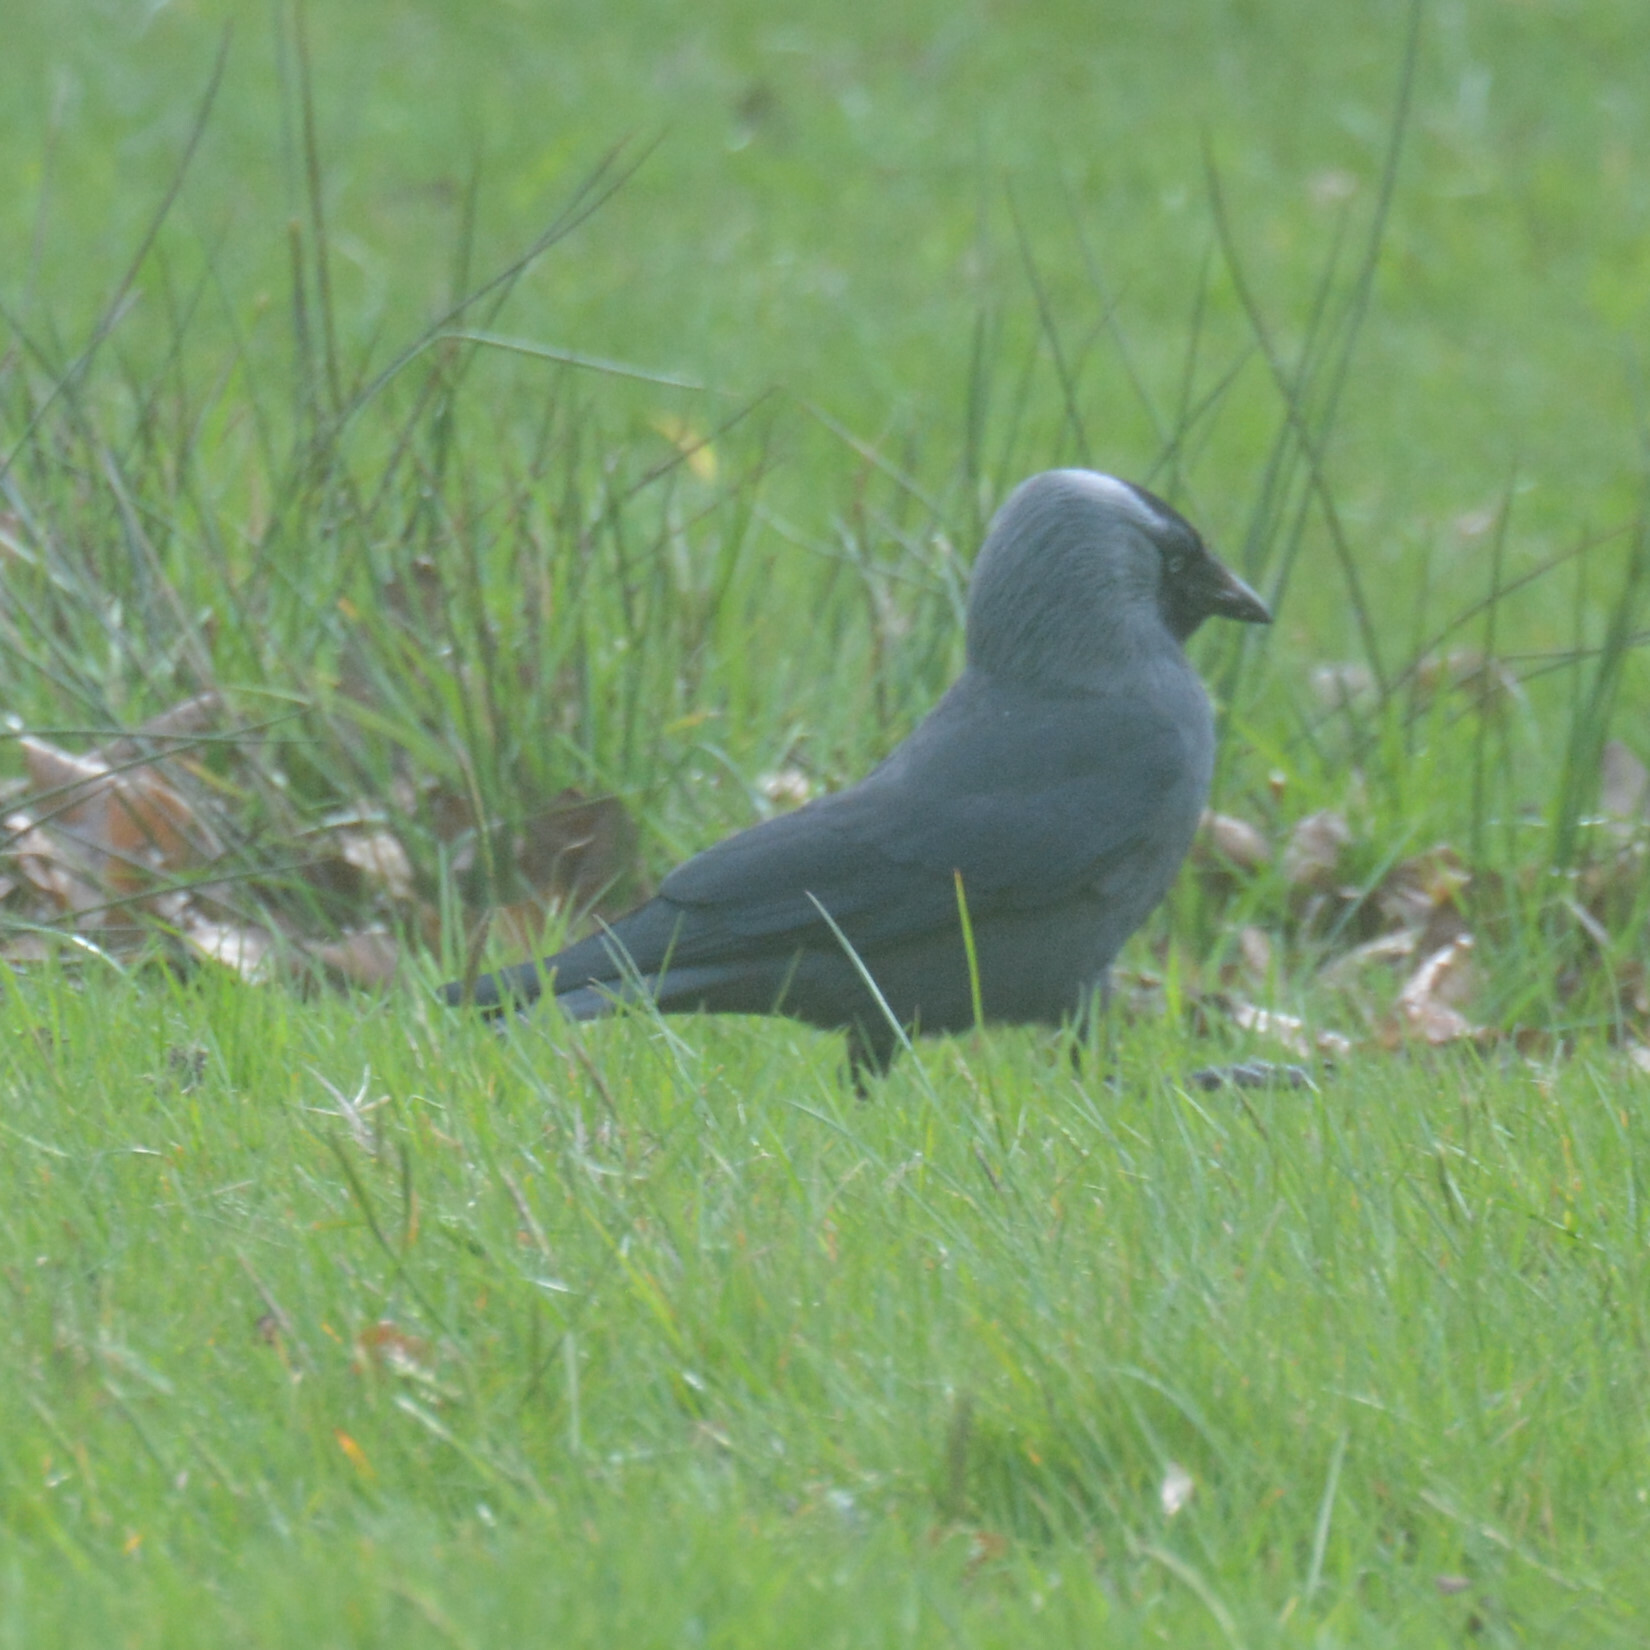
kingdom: Animalia
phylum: Chordata
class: Aves
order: Passeriformes
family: Corvidae
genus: Coloeus
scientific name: Coloeus monedula
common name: Western jackdaw
